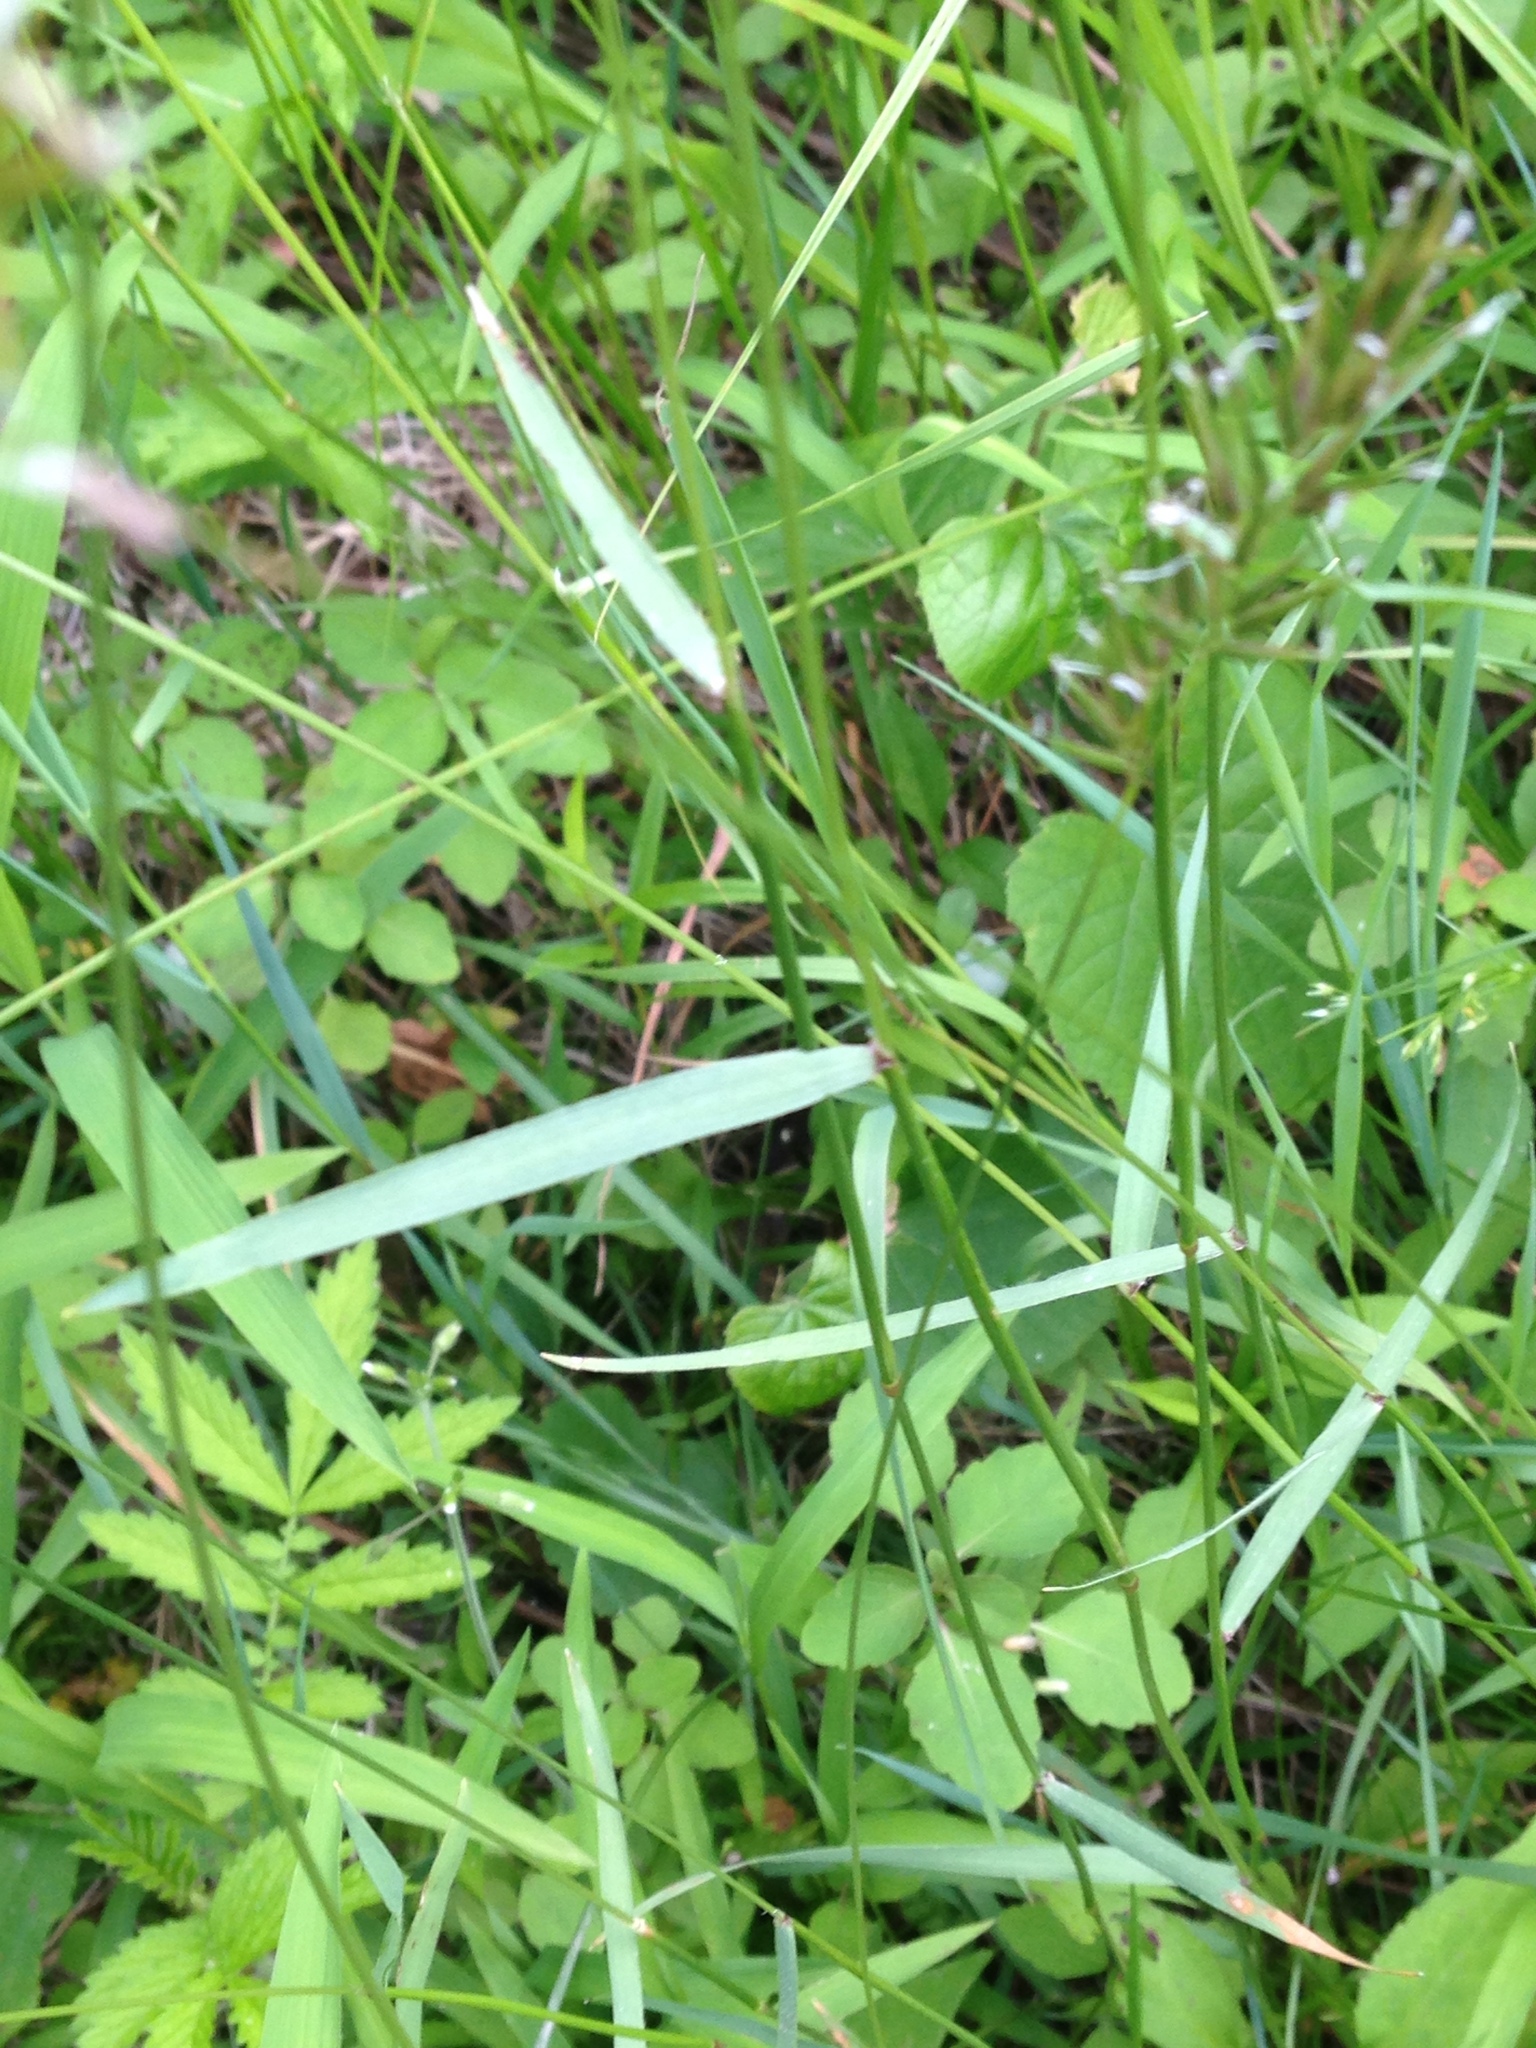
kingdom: Plantae
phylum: Tracheophyta
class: Liliopsida
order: Poales
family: Poaceae
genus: Anthoxanthum
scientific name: Anthoxanthum odoratum
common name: Sweet vernalgrass
